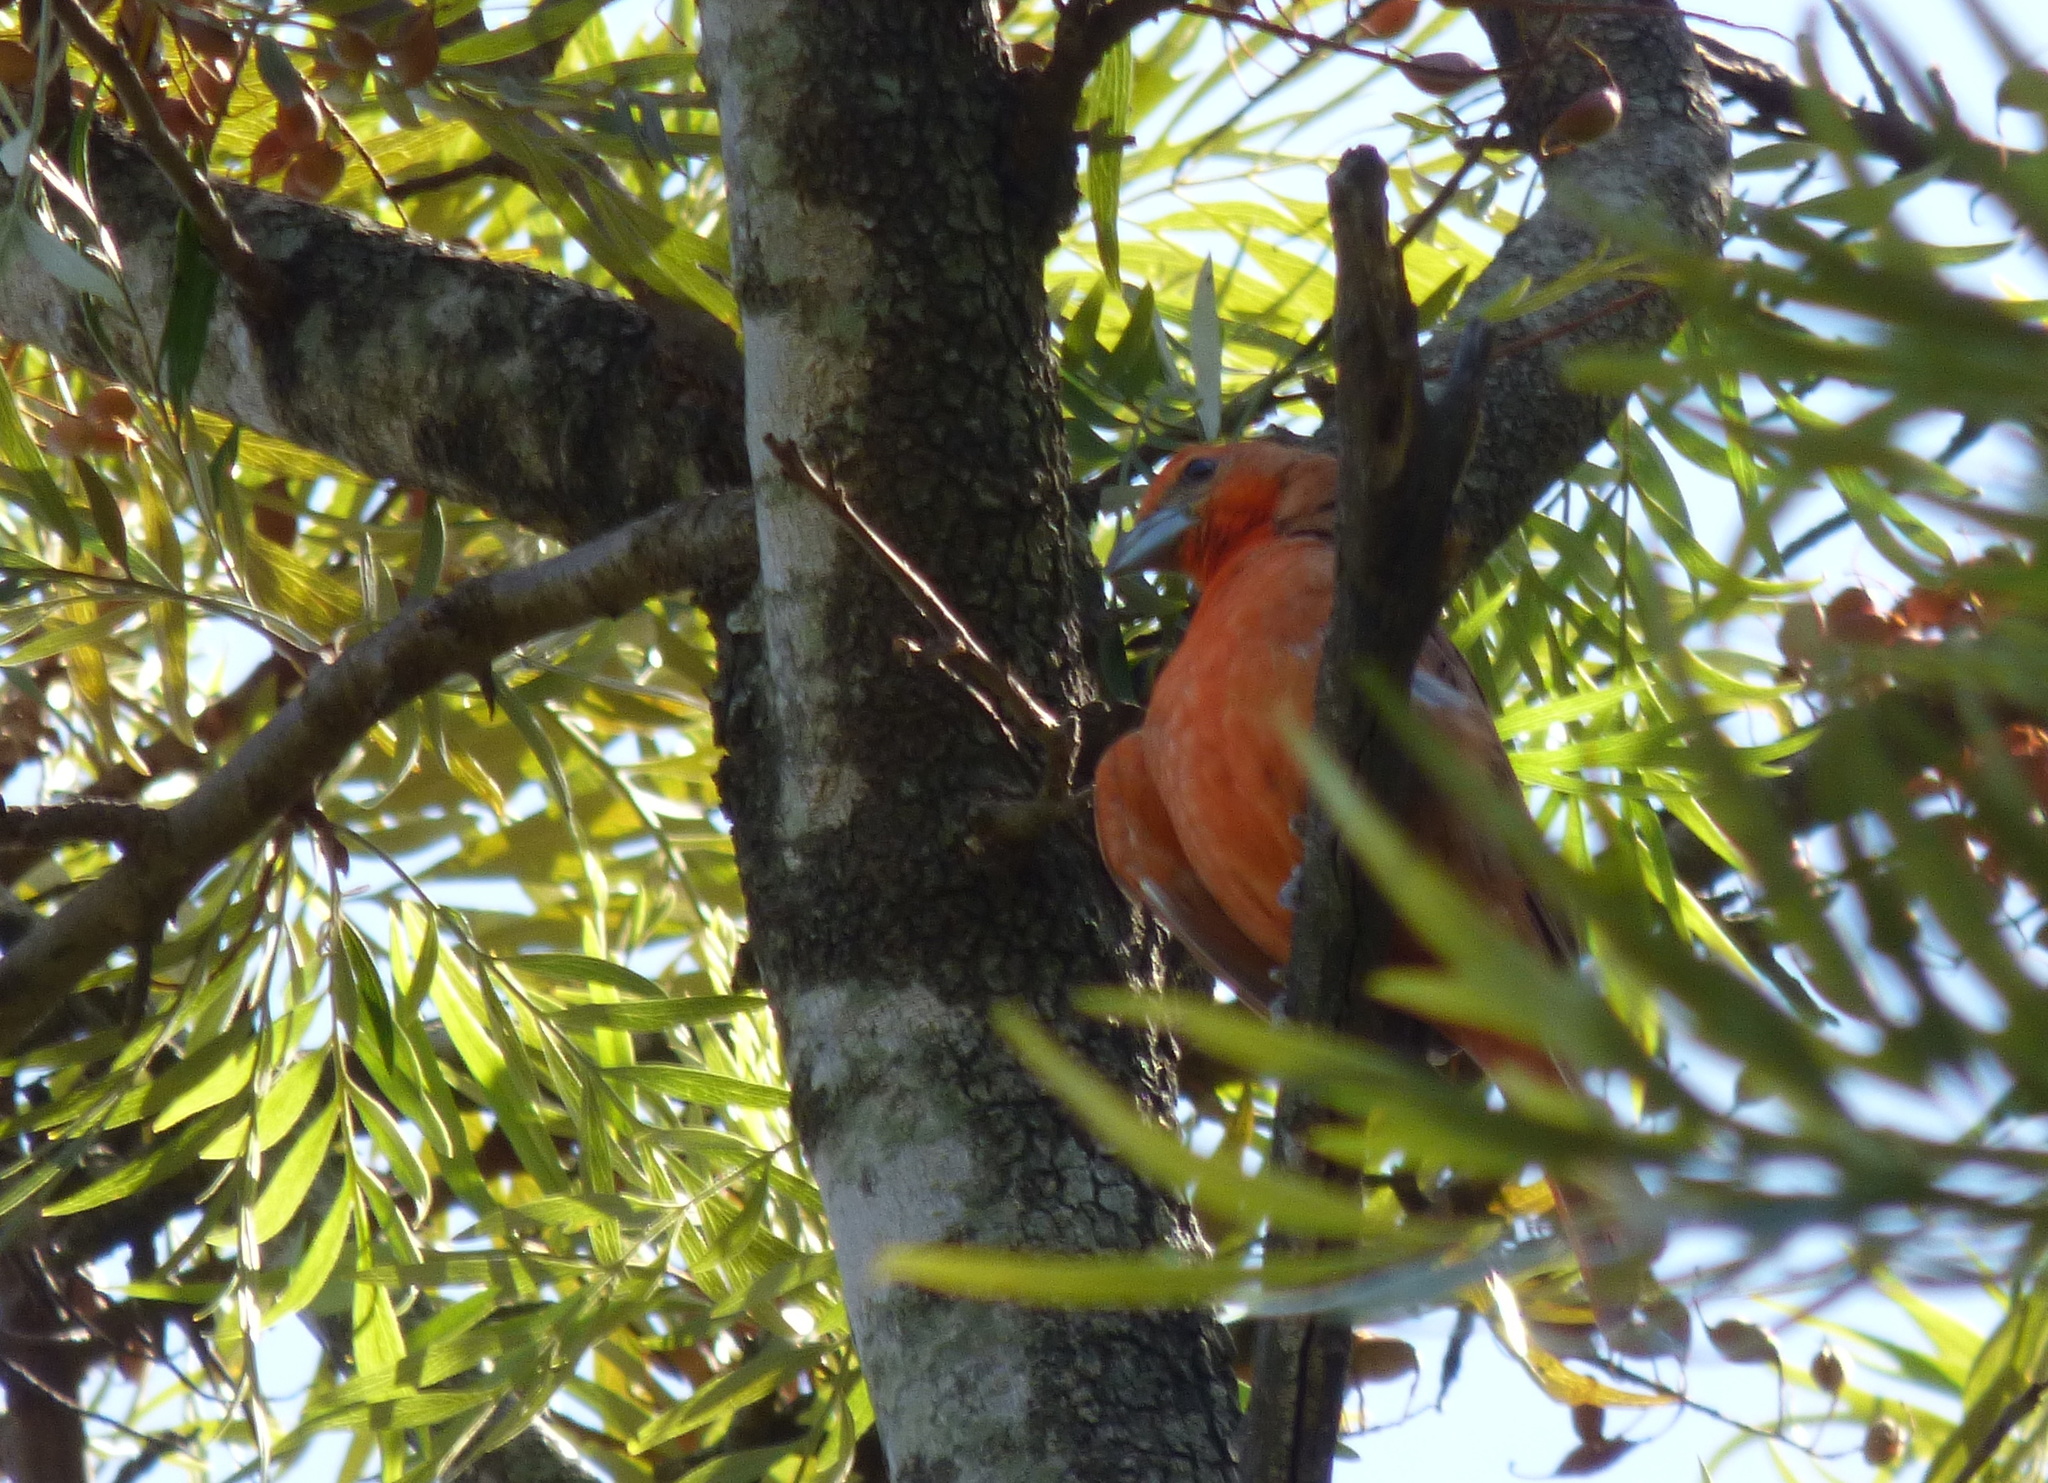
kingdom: Animalia
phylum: Chordata
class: Aves
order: Passeriformes
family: Cardinalidae
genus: Piranga
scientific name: Piranga flava
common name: Red tanager
